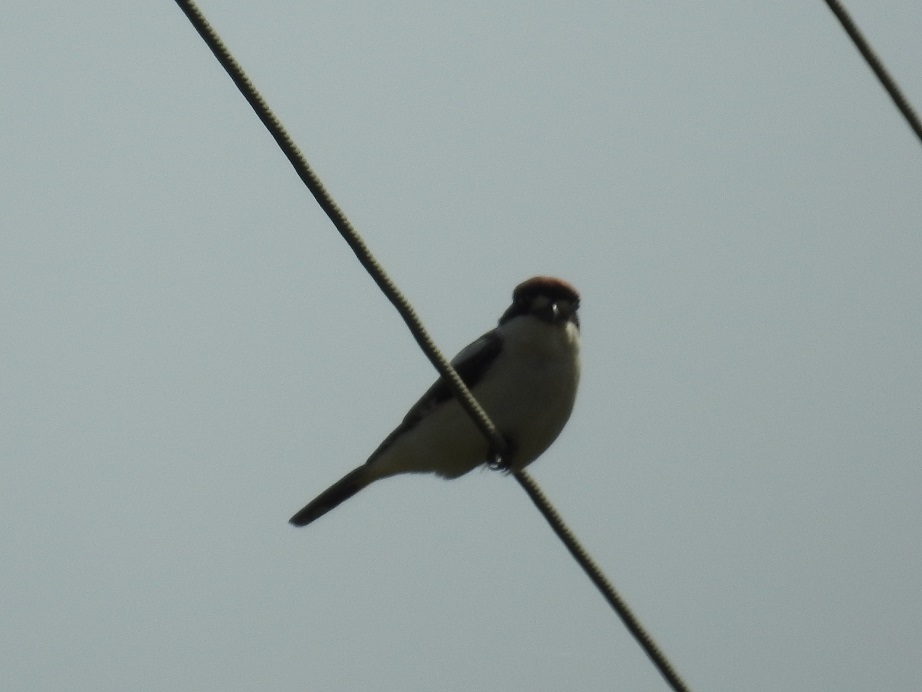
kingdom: Animalia
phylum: Chordata
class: Aves
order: Passeriformes
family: Laniidae
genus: Lanius
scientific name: Lanius senator
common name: Woodchat shrike
